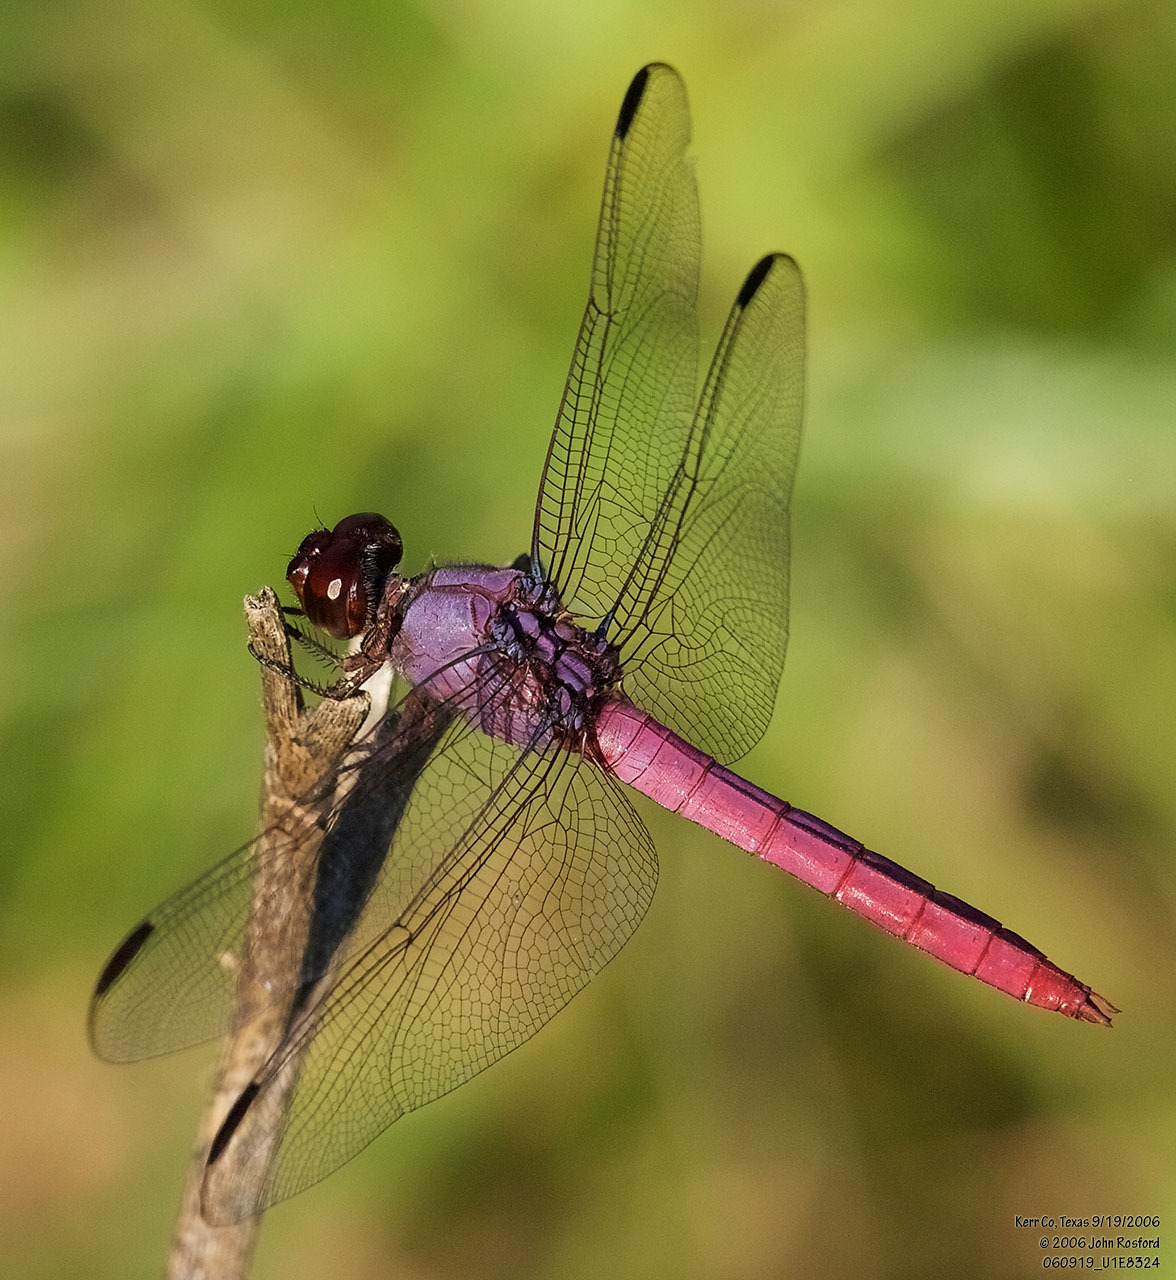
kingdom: Animalia
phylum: Arthropoda
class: Insecta
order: Odonata
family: Libellulidae
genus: Orthemis
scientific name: Orthemis ferruginea
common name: Roseate skimmer
